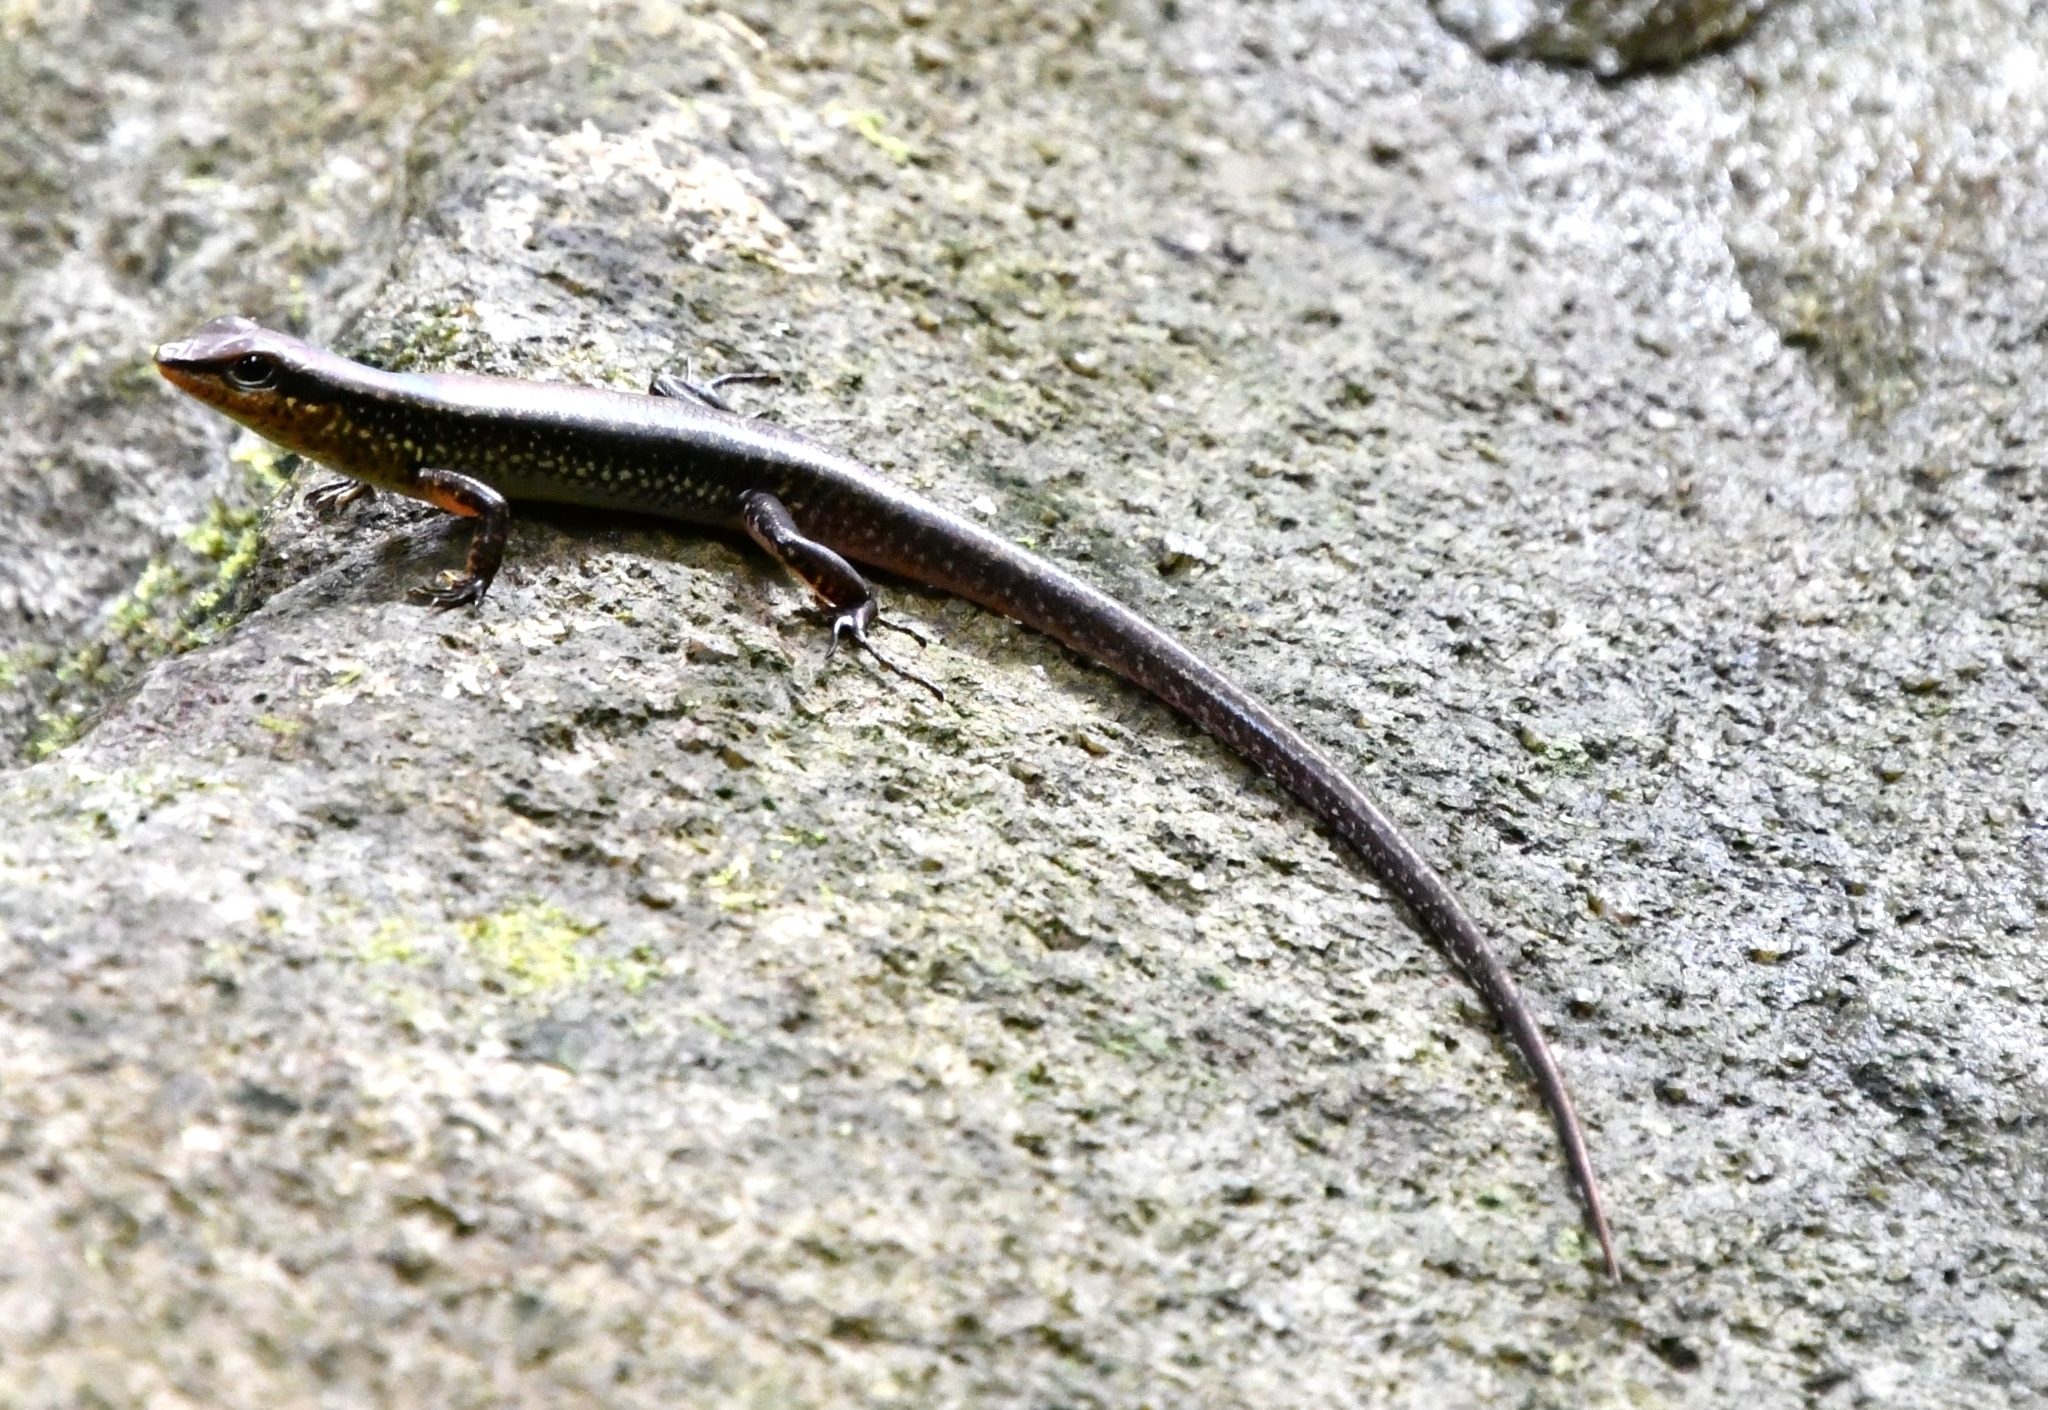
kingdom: Animalia
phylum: Chordata
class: Squamata
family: Scincidae
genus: Sphenomorphus
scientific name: Sphenomorphus maculatus
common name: Maculated forest skink
